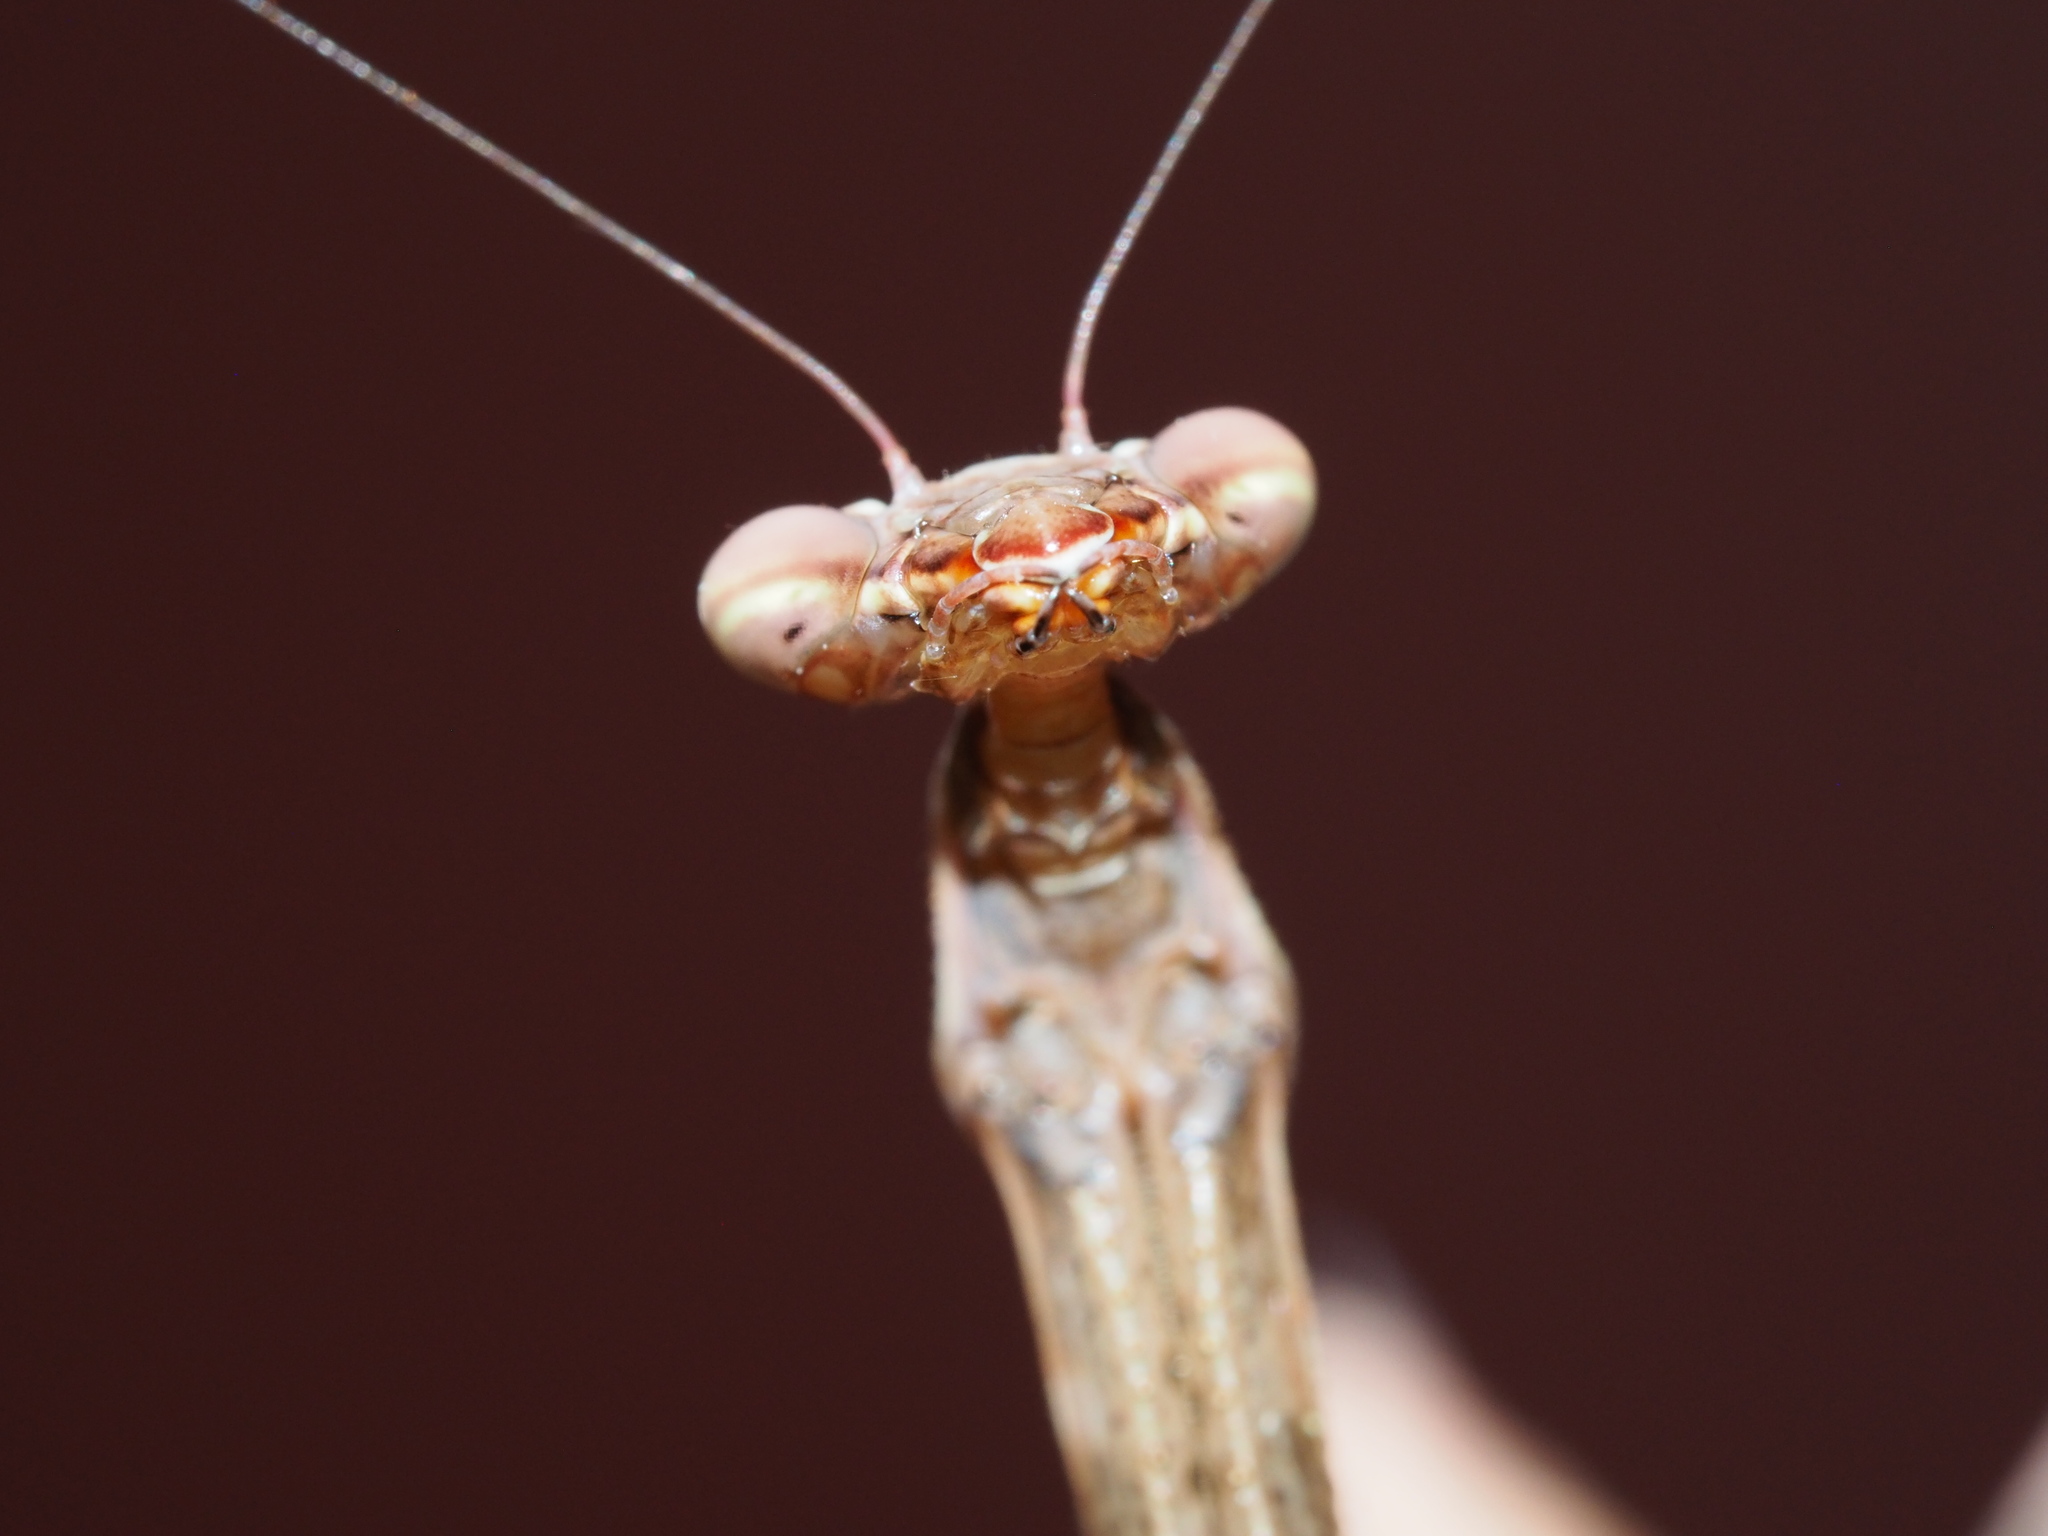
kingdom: Animalia
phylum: Arthropoda
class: Insecta
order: Mantodea
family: Miomantidae
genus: Miomantis
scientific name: Miomantis caffra
